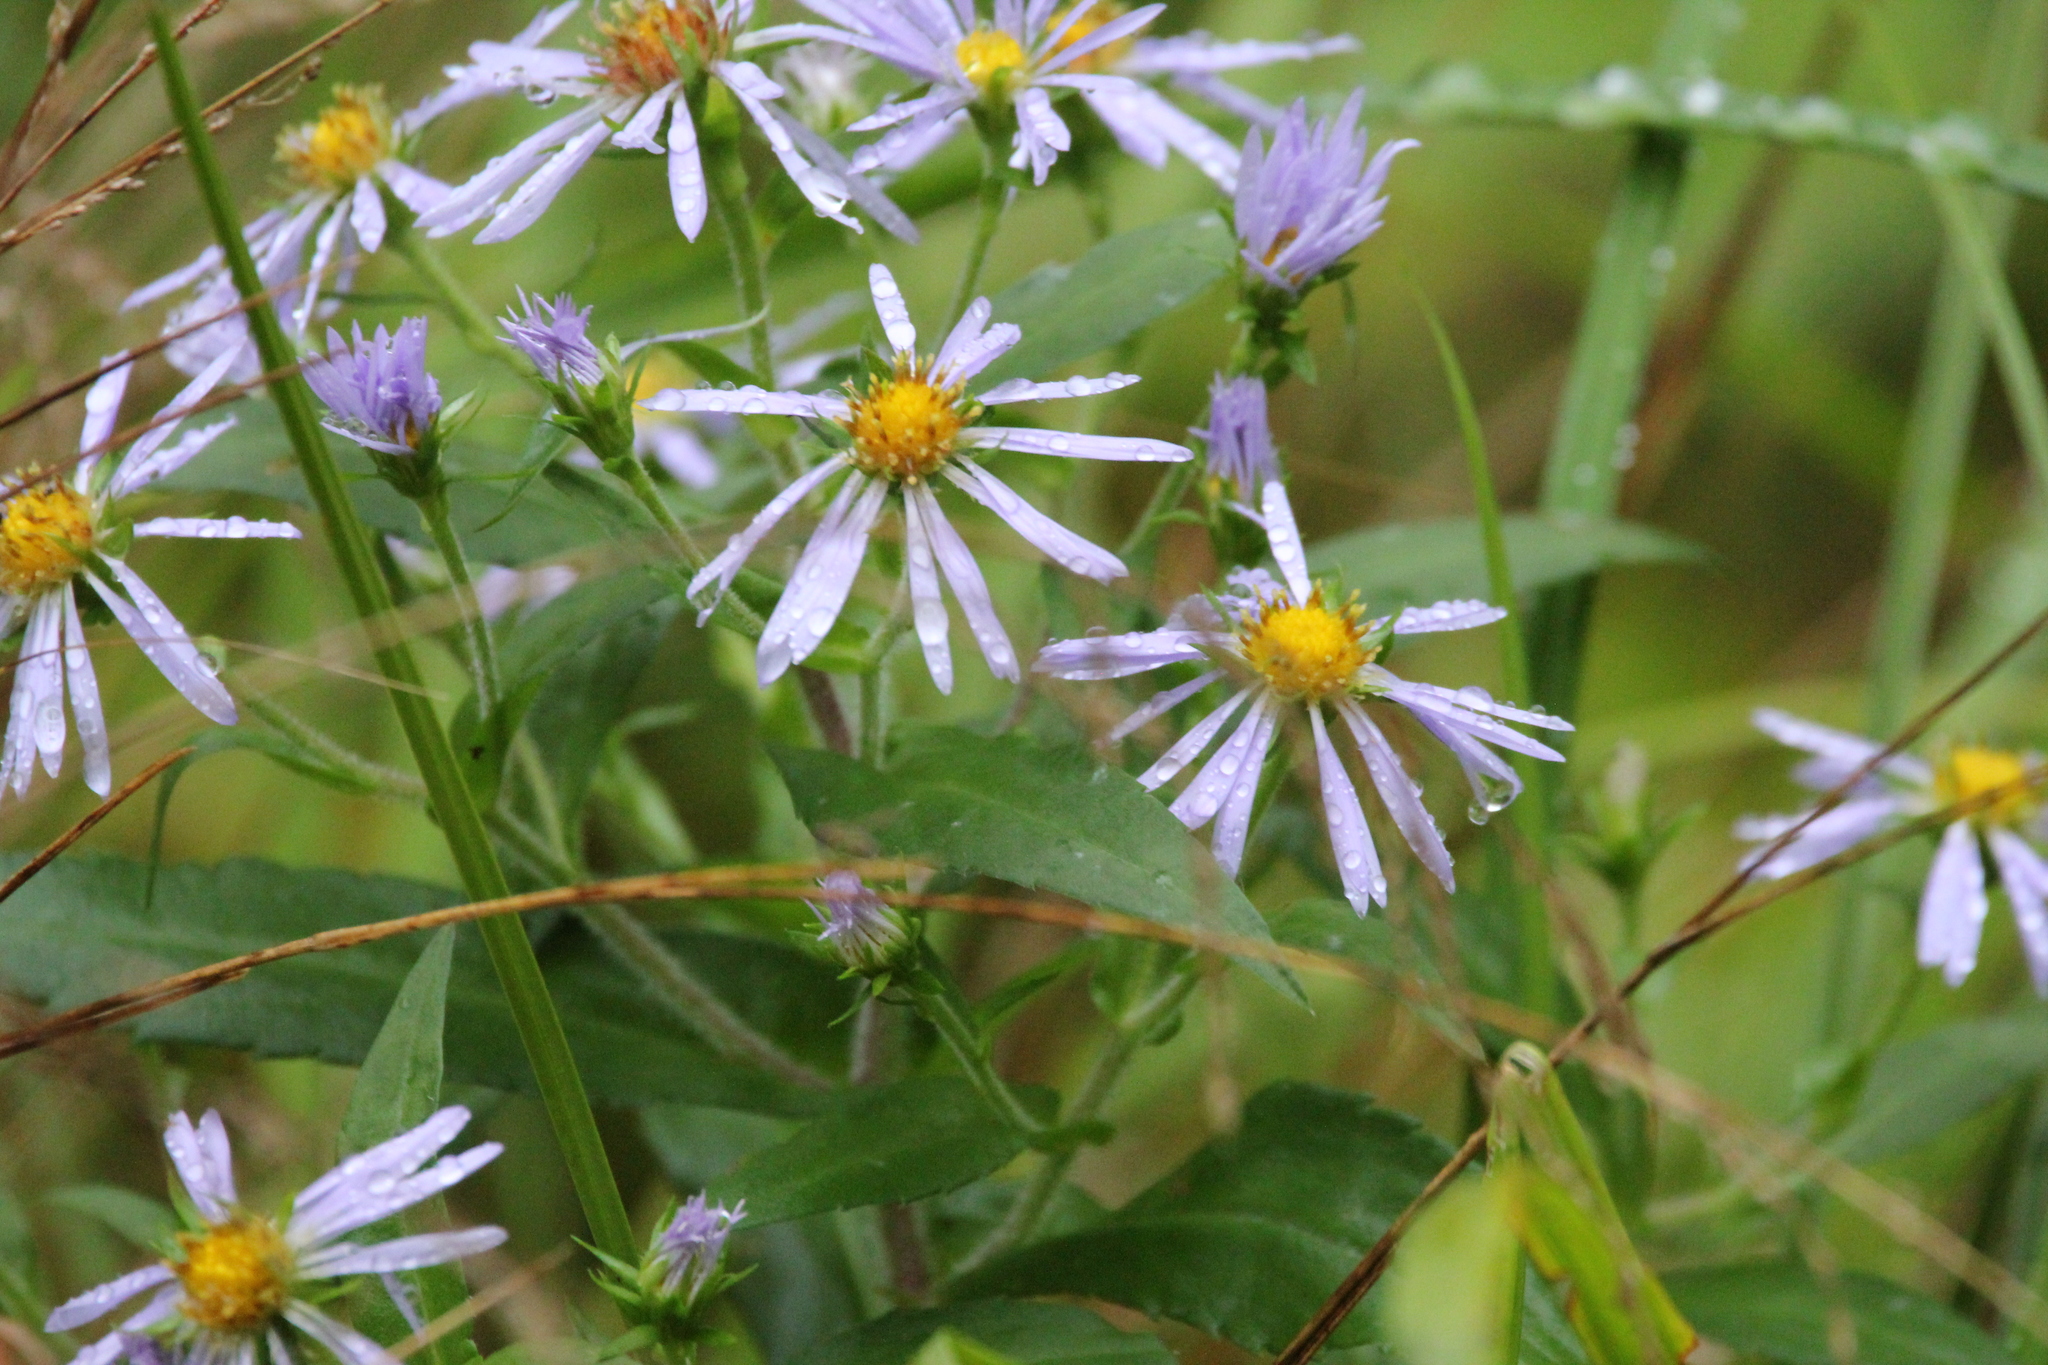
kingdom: Plantae
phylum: Tracheophyta
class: Magnoliopsida
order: Asterales
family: Asteraceae
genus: Symphyotrichum
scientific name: Symphyotrichum puniceum
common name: Bog aster
